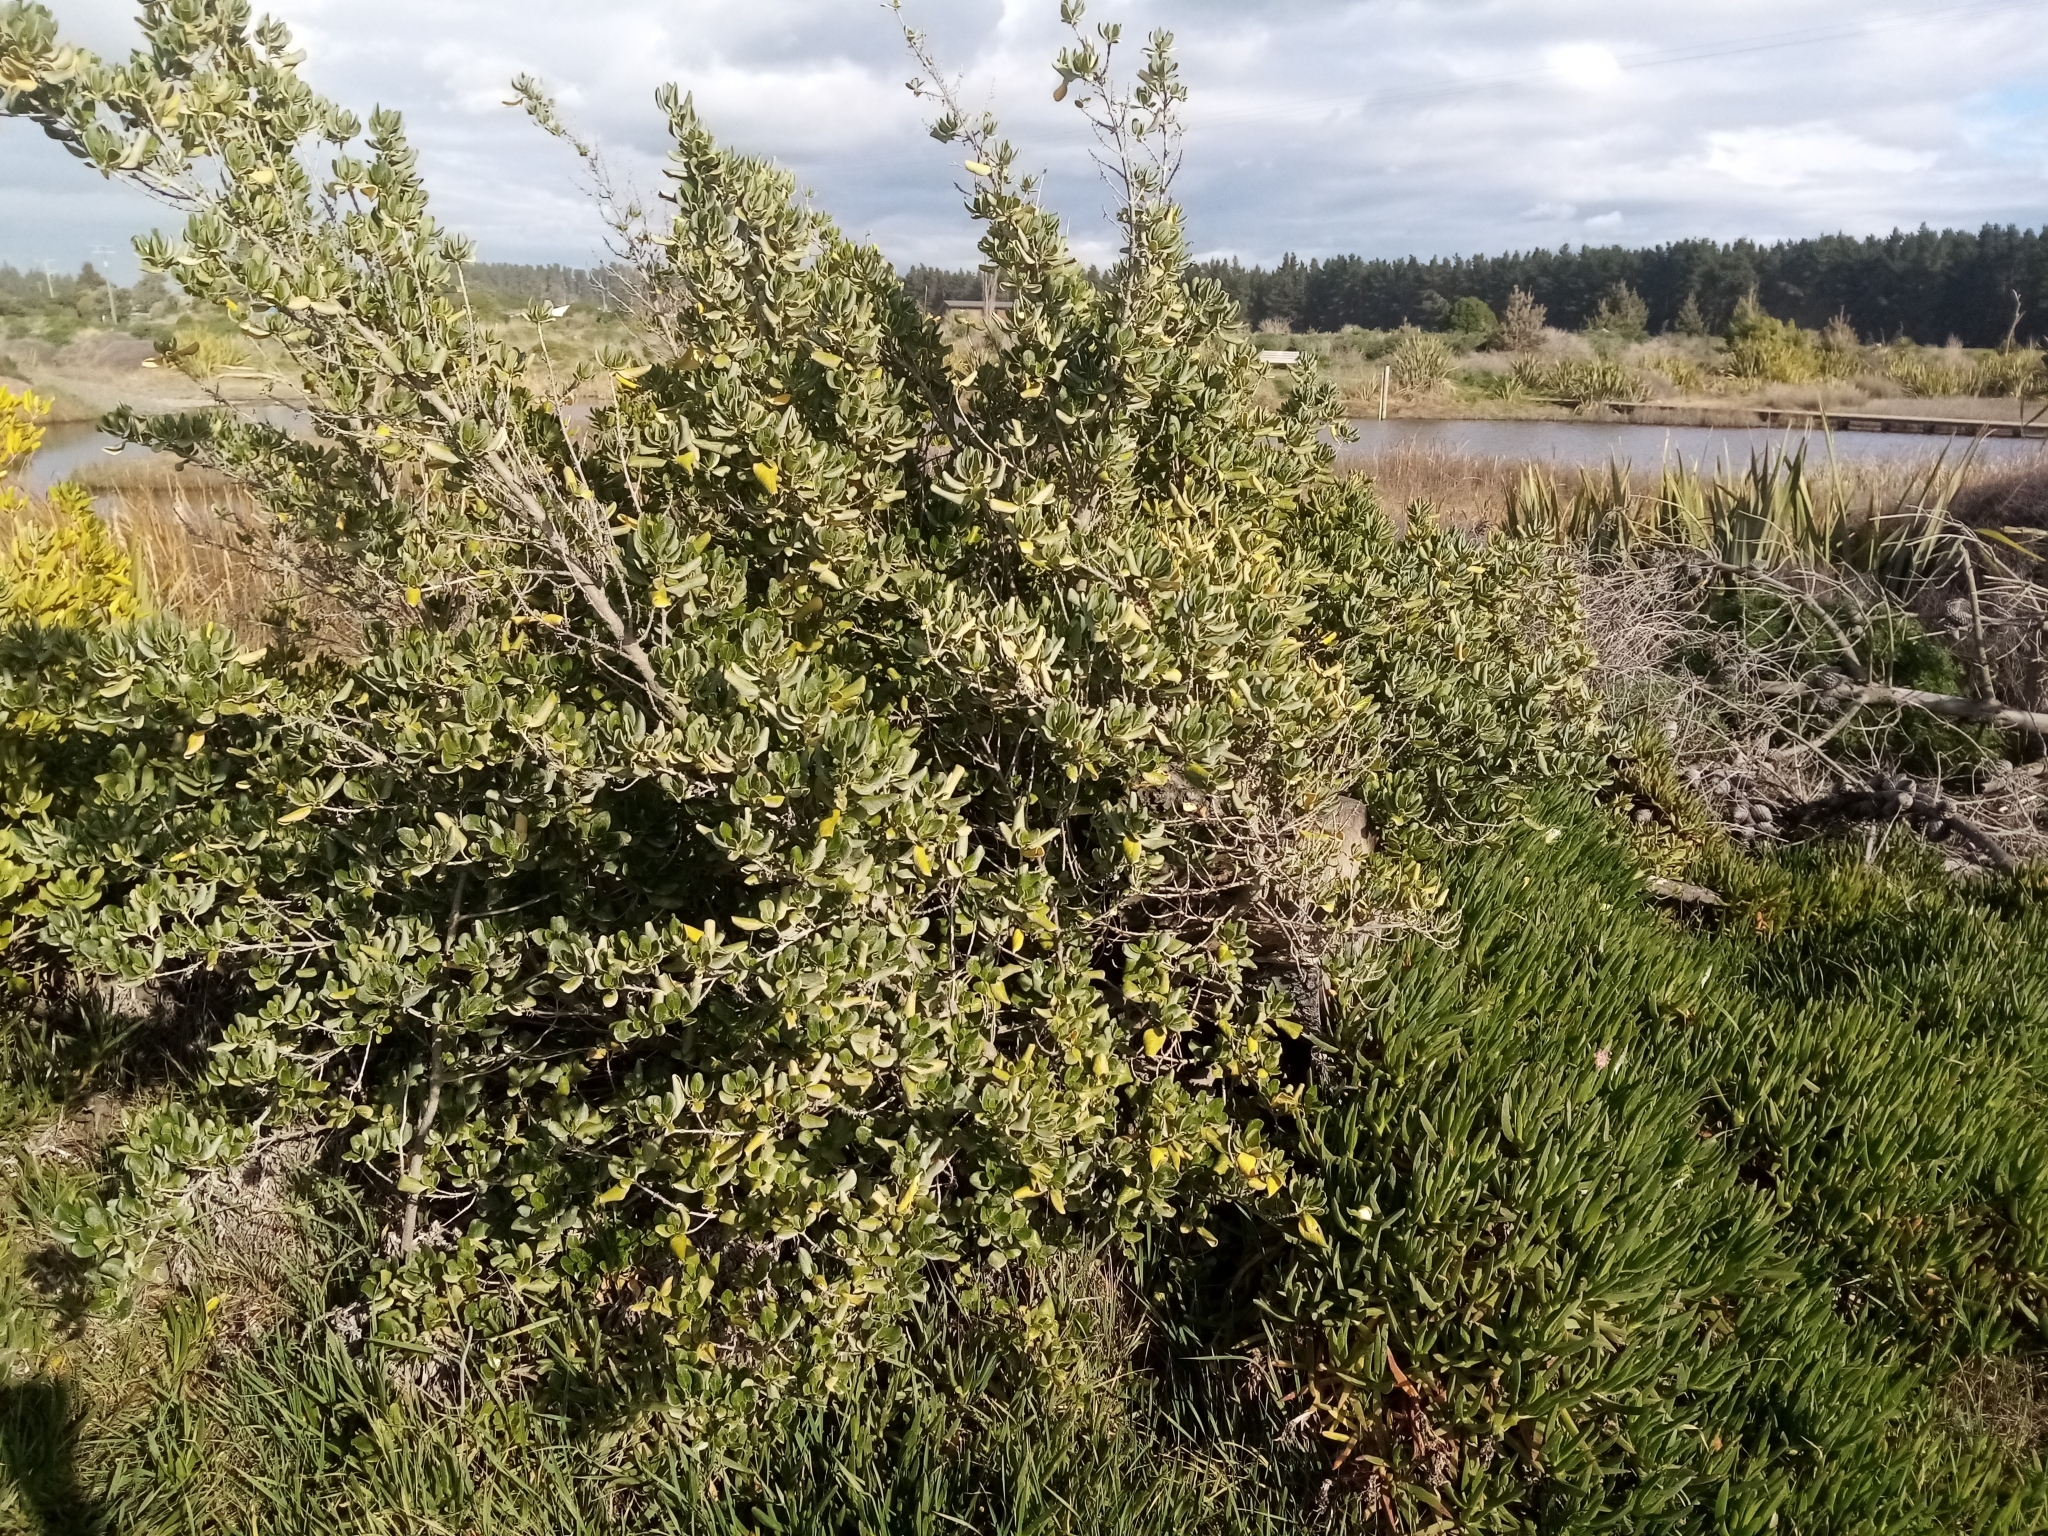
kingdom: Plantae
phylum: Tracheophyta
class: Magnoliopsida
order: Gentianales
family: Rubiaceae
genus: Coprosma
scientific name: Coprosma repens
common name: Tree bedstraw
